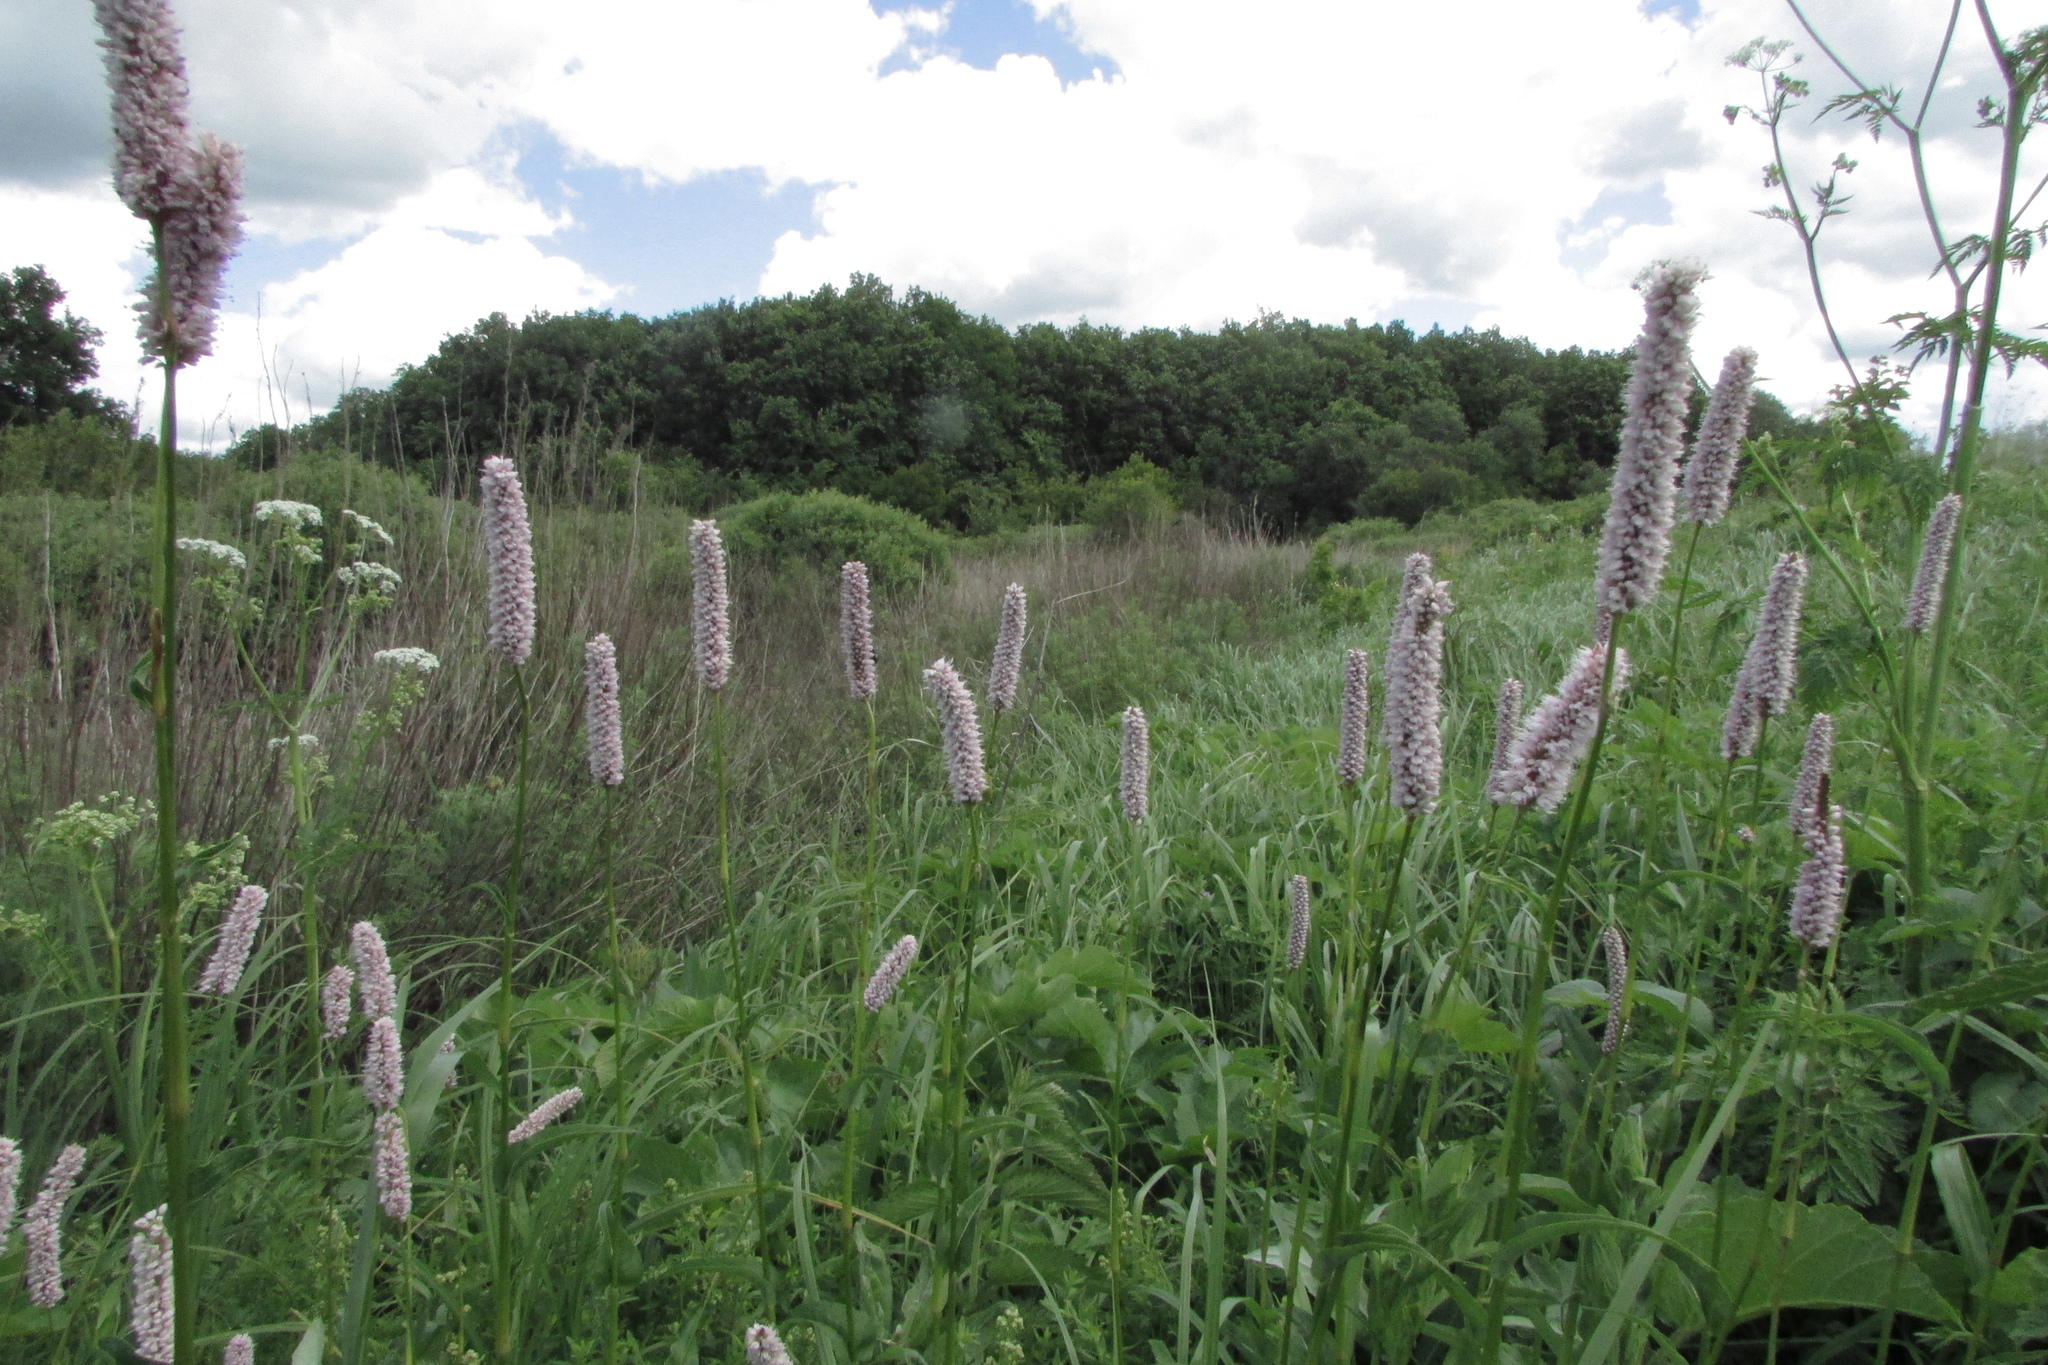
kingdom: Plantae
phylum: Tracheophyta
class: Magnoliopsida
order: Caryophyllales
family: Polygonaceae
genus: Bistorta
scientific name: Bistorta officinalis
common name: Common bistort
